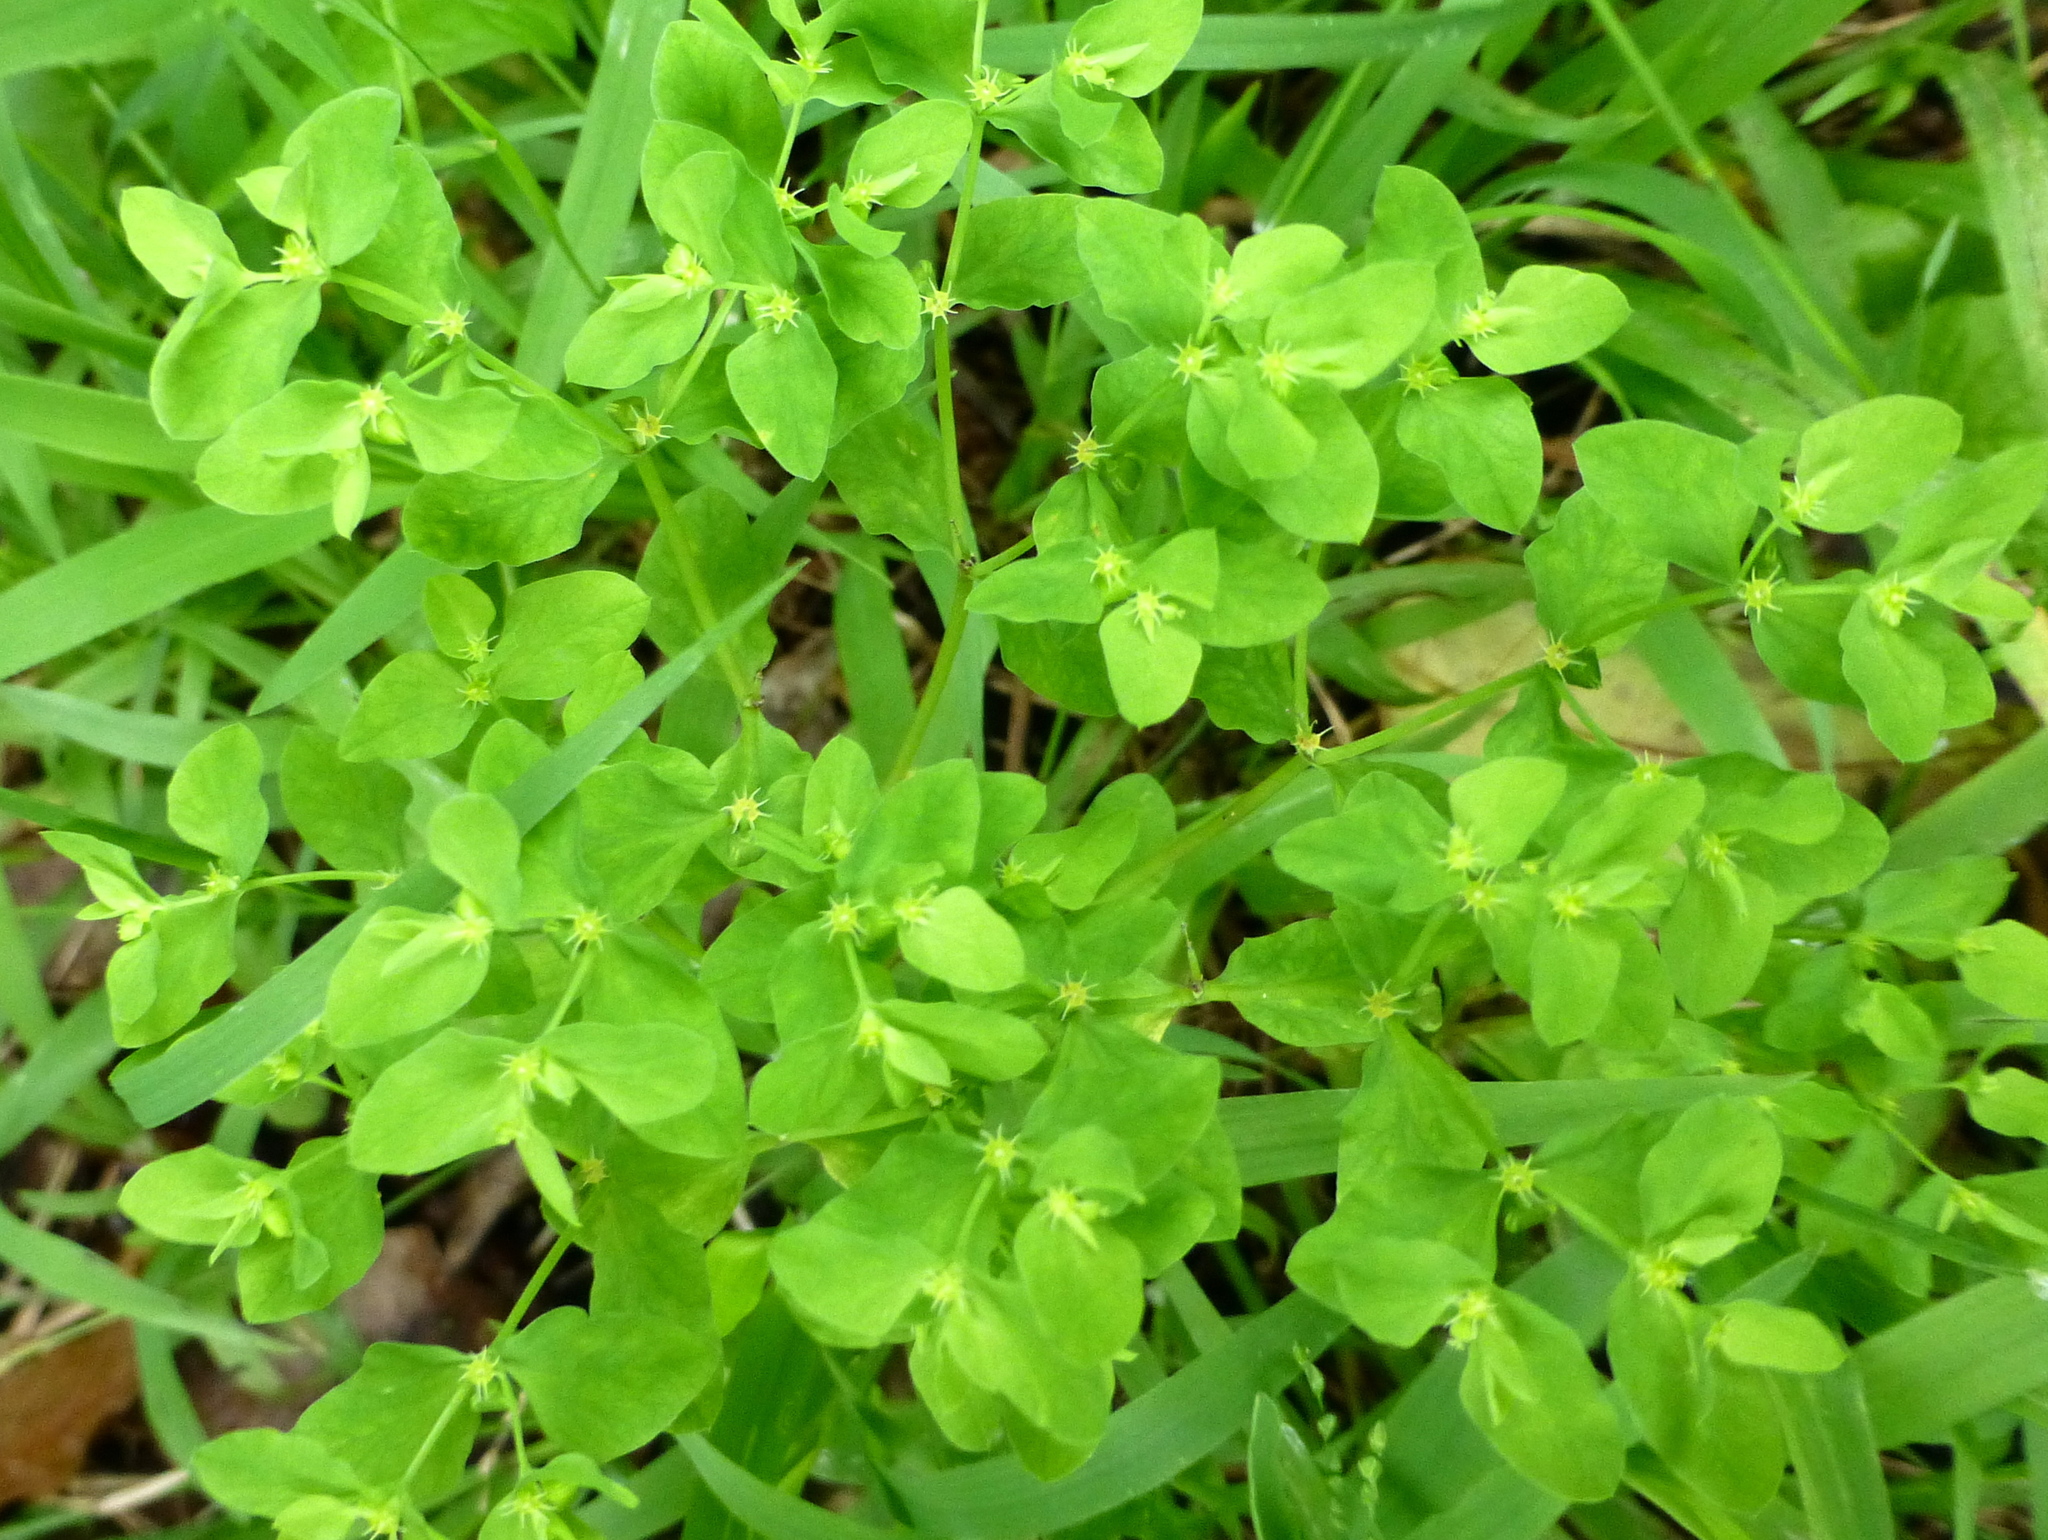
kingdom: Plantae
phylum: Tracheophyta
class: Magnoliopsida
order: Malpighiales
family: Euphorbiaceae
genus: Euphorbia
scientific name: Euphorbia peplus
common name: Petty spurge
